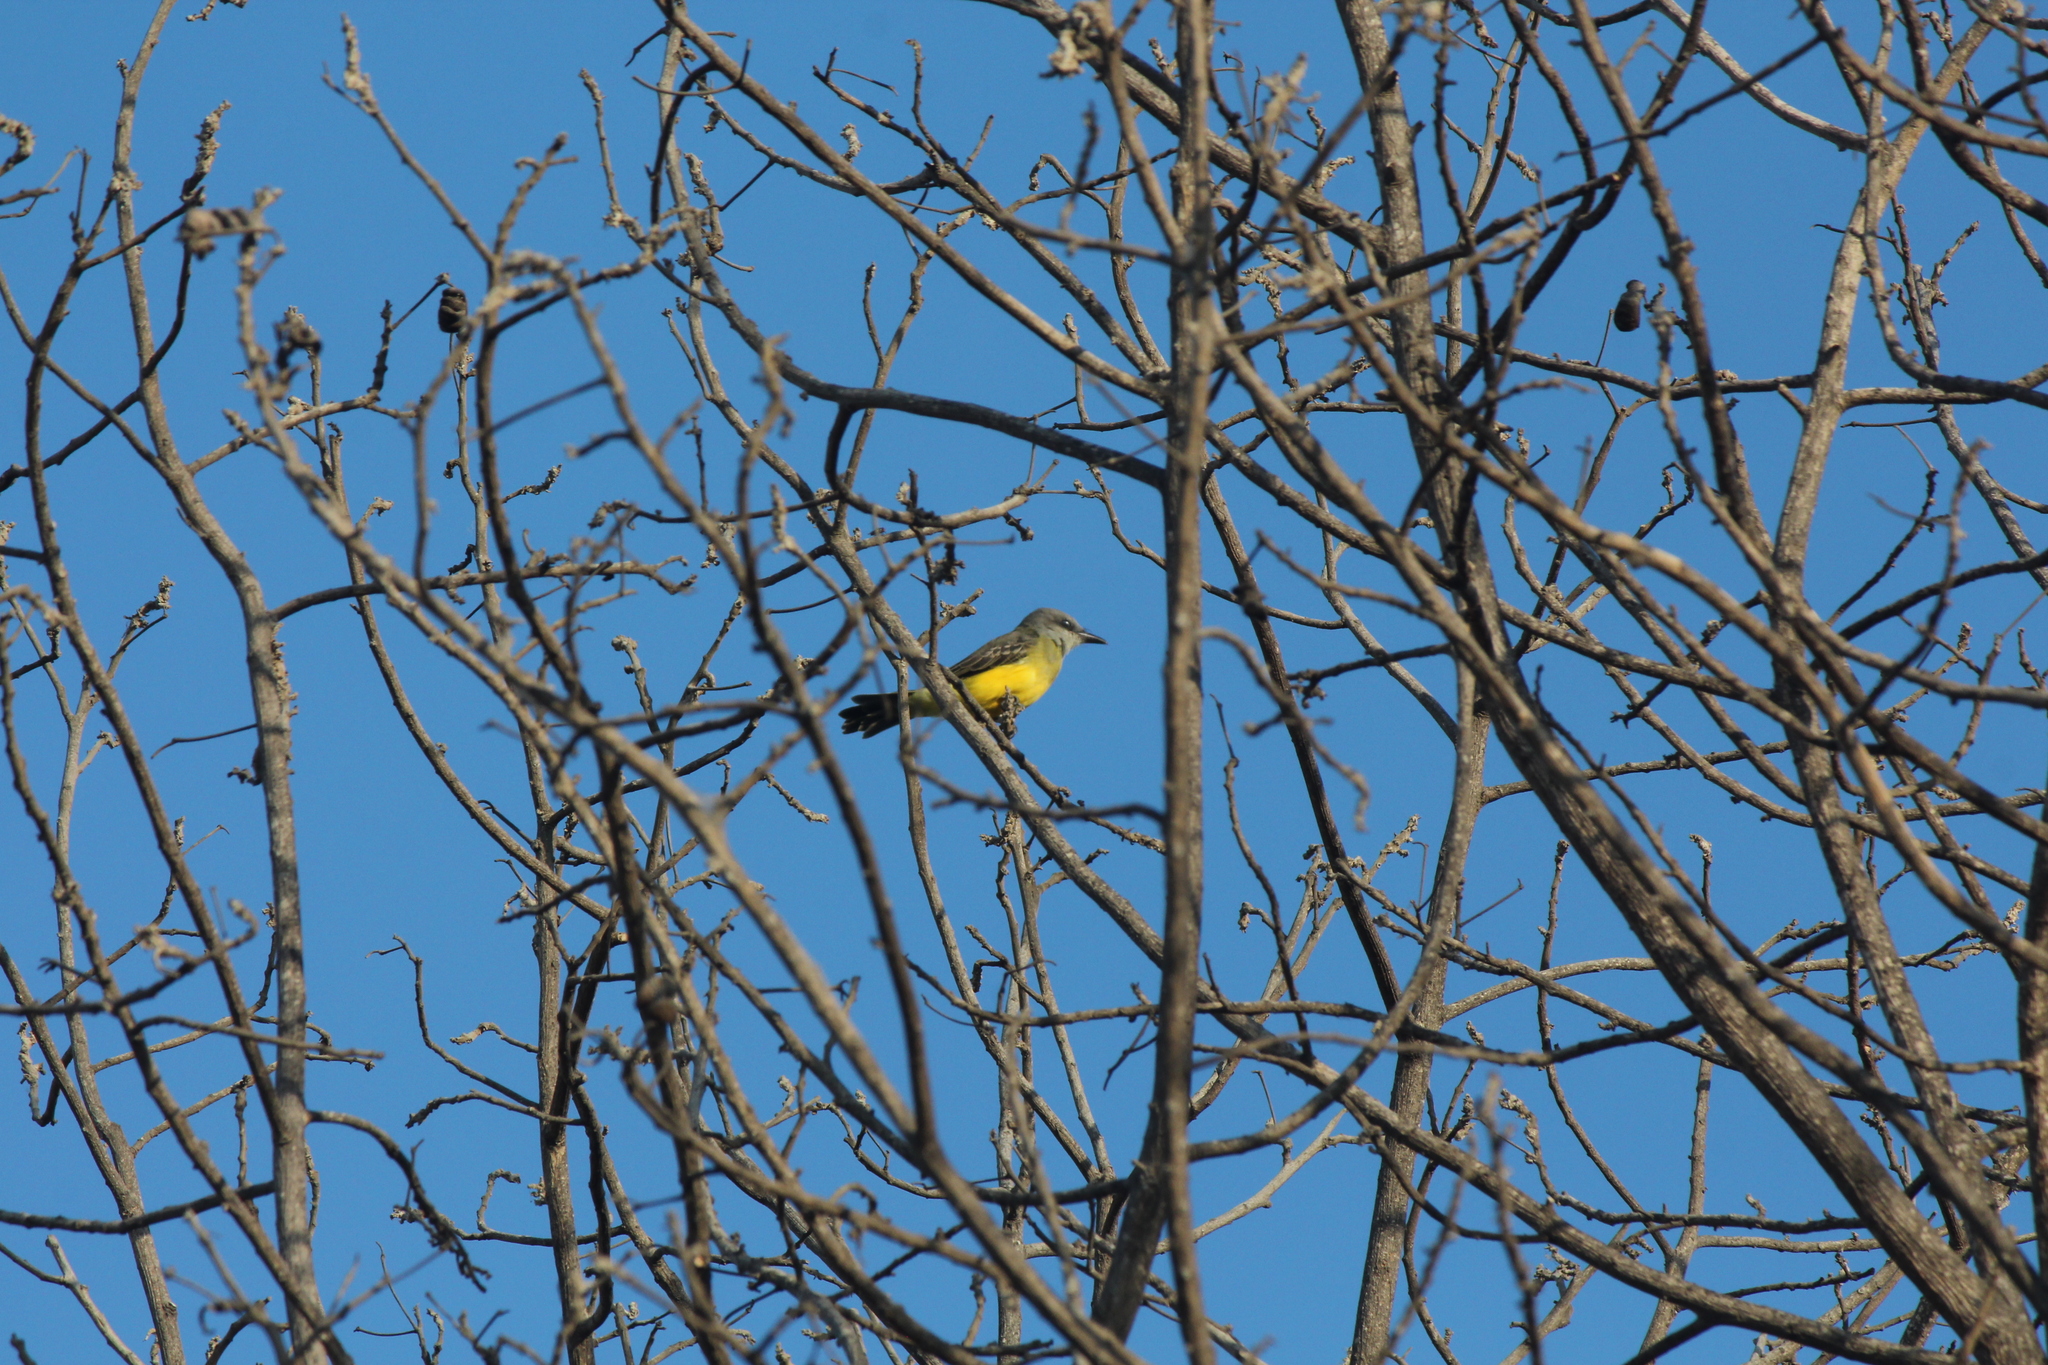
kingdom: Animalia
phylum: Chordata
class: Aves
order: Passeriformes
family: Tyrannidae
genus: Tyrannus
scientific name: Tyrannus melancholicus
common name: Tropical kingbird
